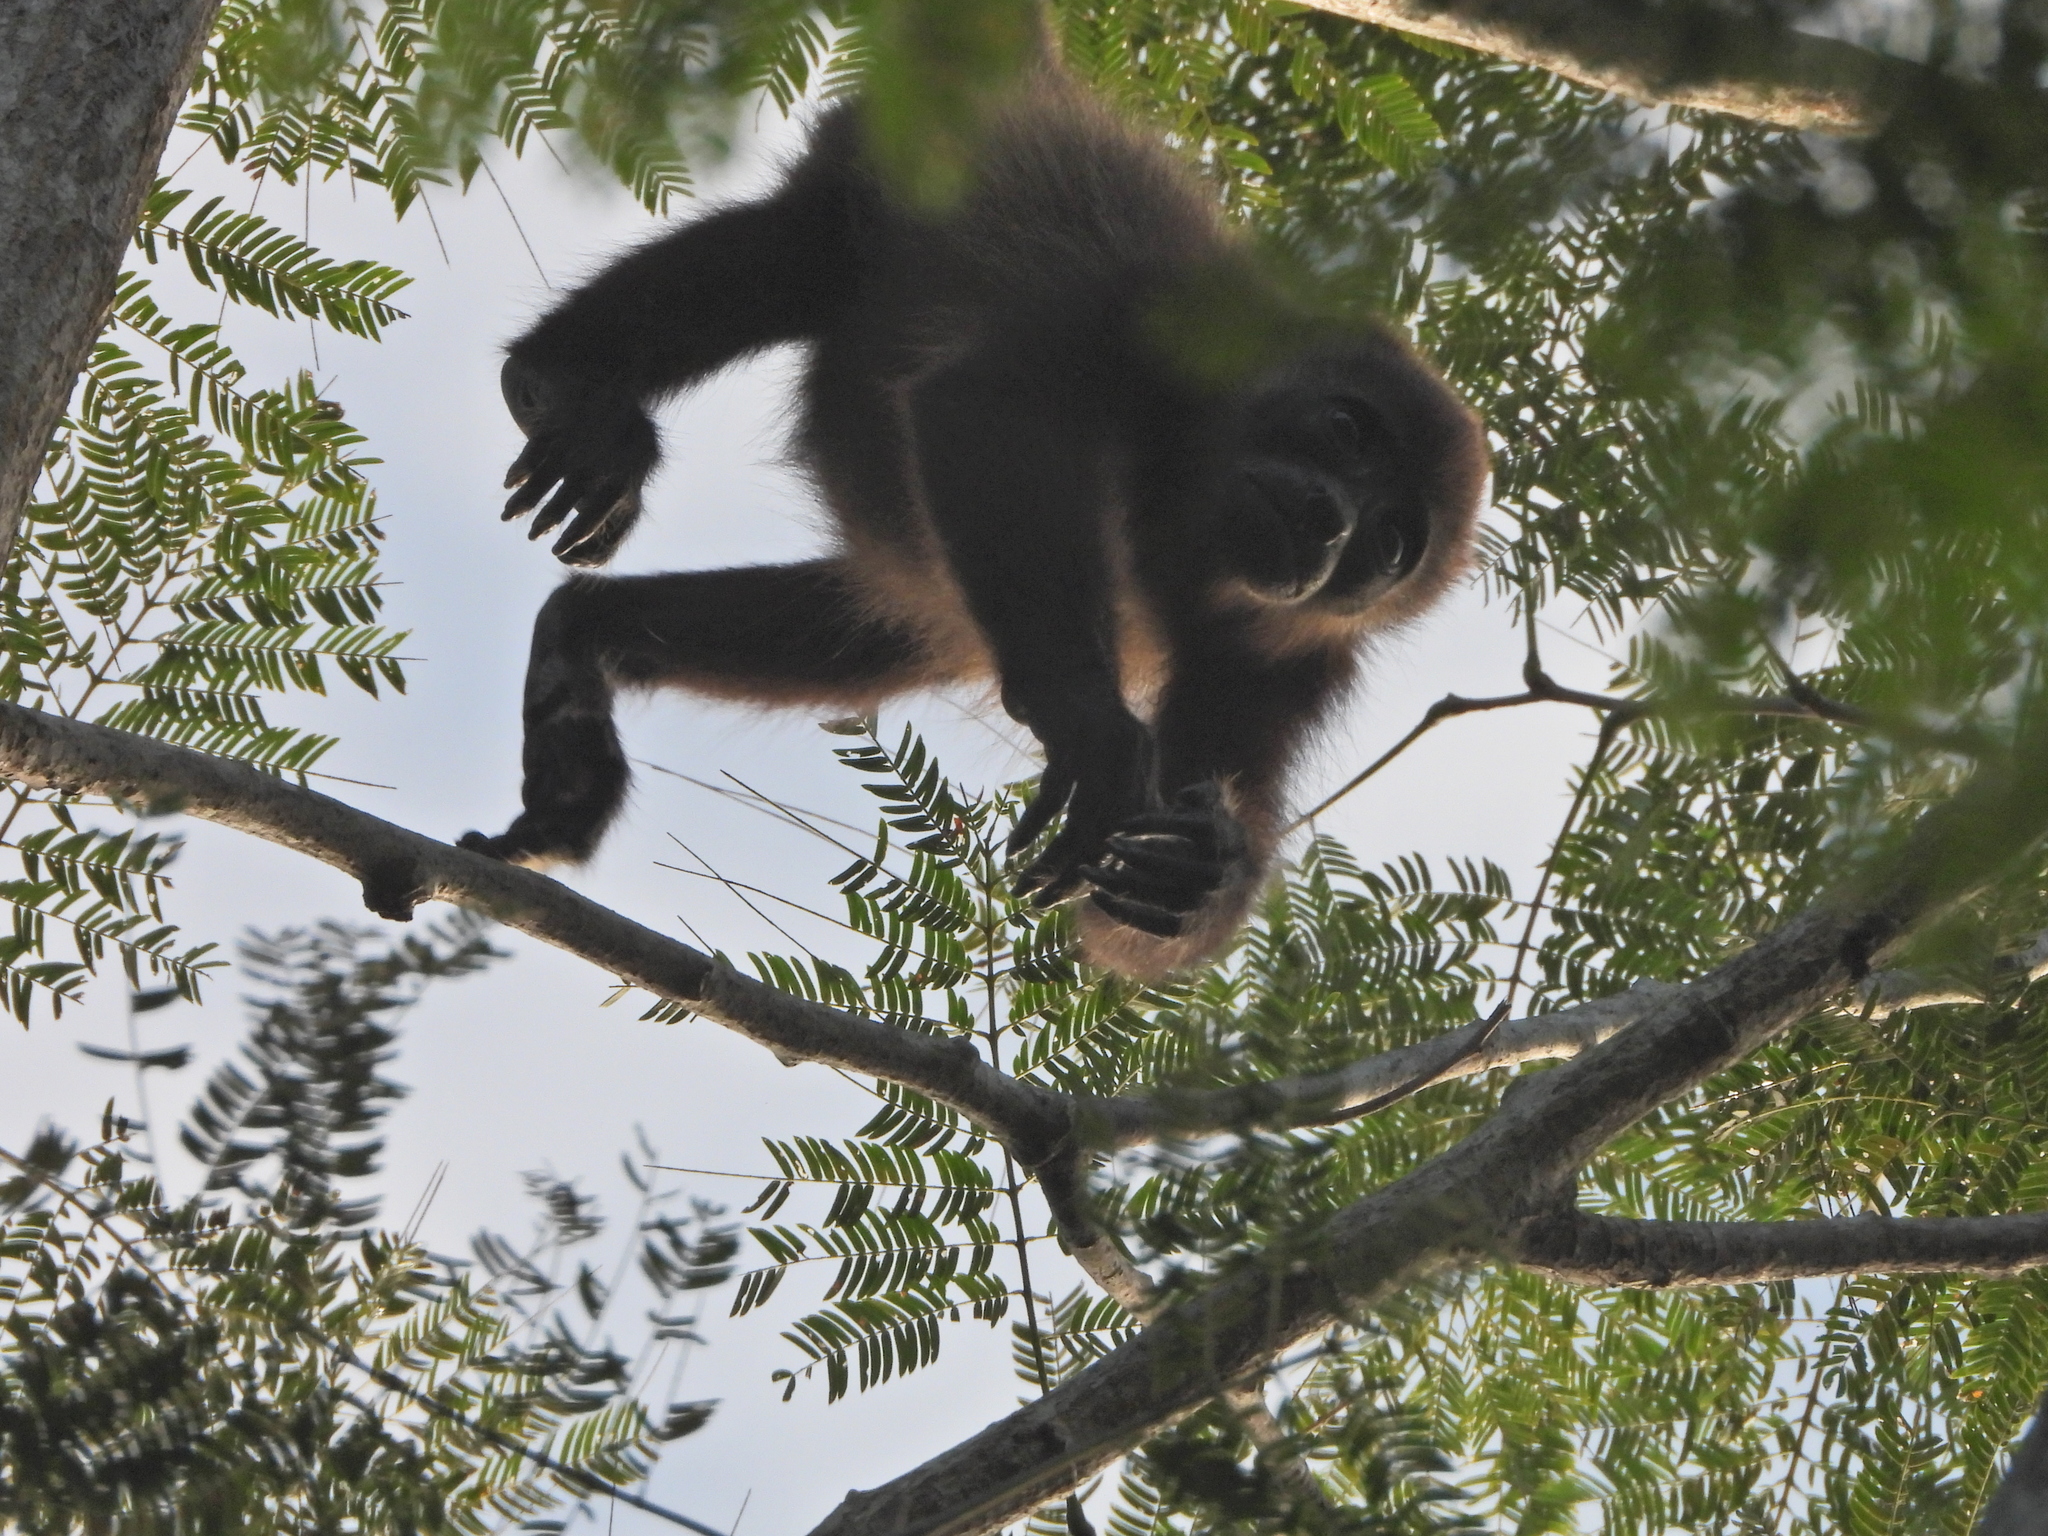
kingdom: Animalia
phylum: Chordata
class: Mammalia
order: Primates
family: Atelidae
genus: Alouatta
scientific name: Alouatta palliata
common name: Mantled howler
